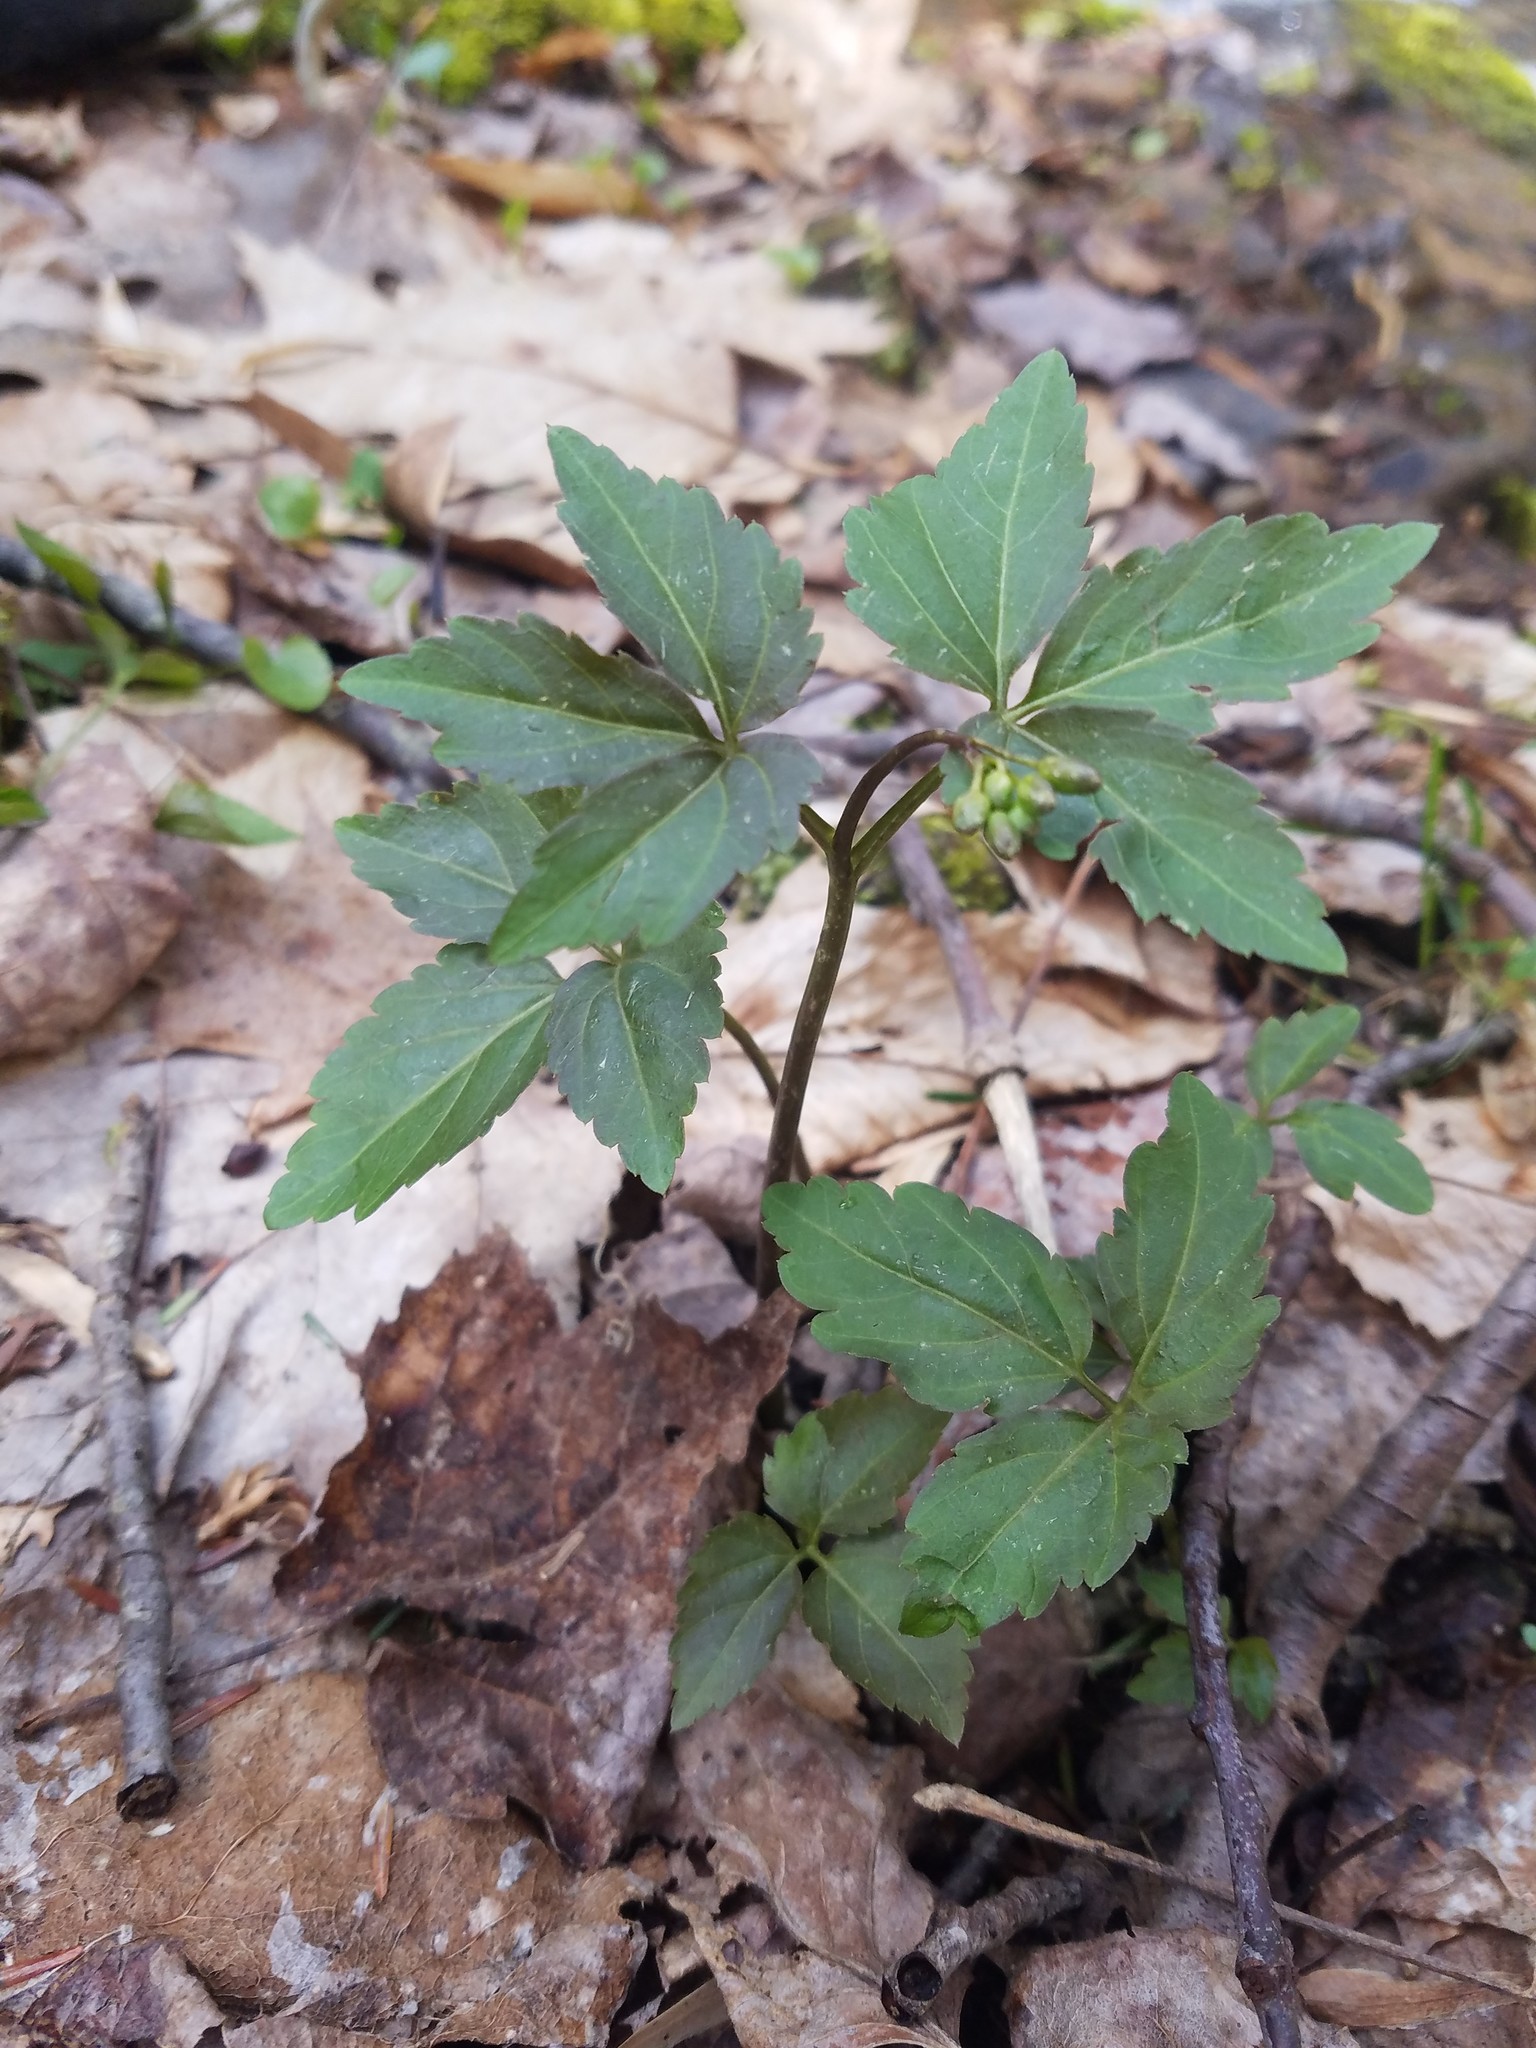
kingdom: Plantae
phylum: Tracheophyta
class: Magnoliopsida
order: Brassicales
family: Brassicaceae
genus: Cardamine
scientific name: Cardamine diphylla
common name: Broad-leaved toothwort
